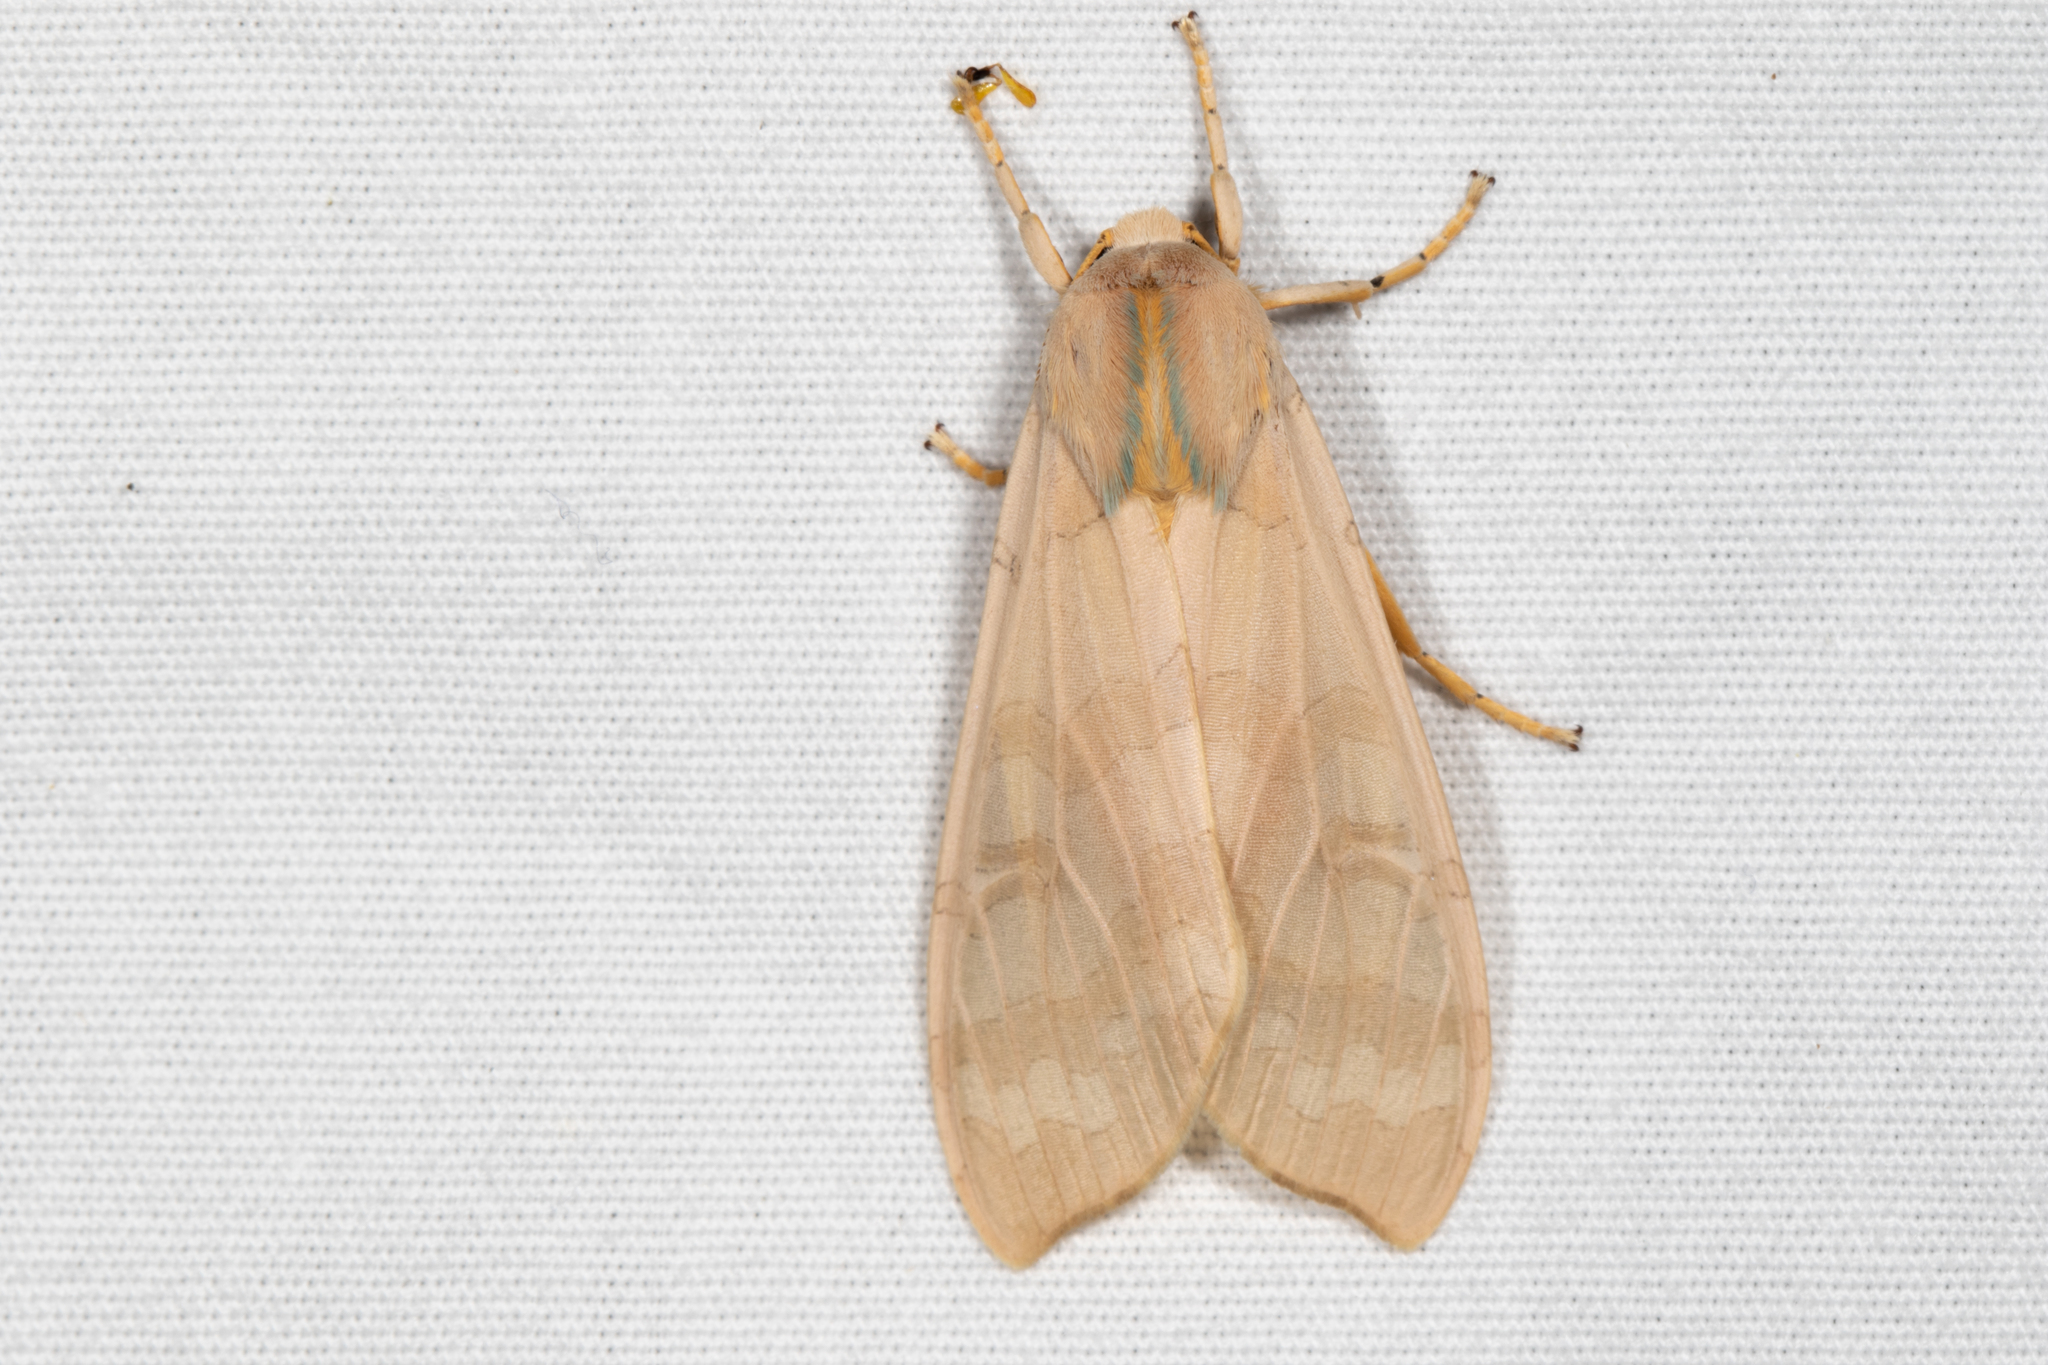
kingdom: Animalia
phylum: Arthropoda
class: Insecta
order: Lepidoptera
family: Erebidae
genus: Halysidota
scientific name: Halysidota
